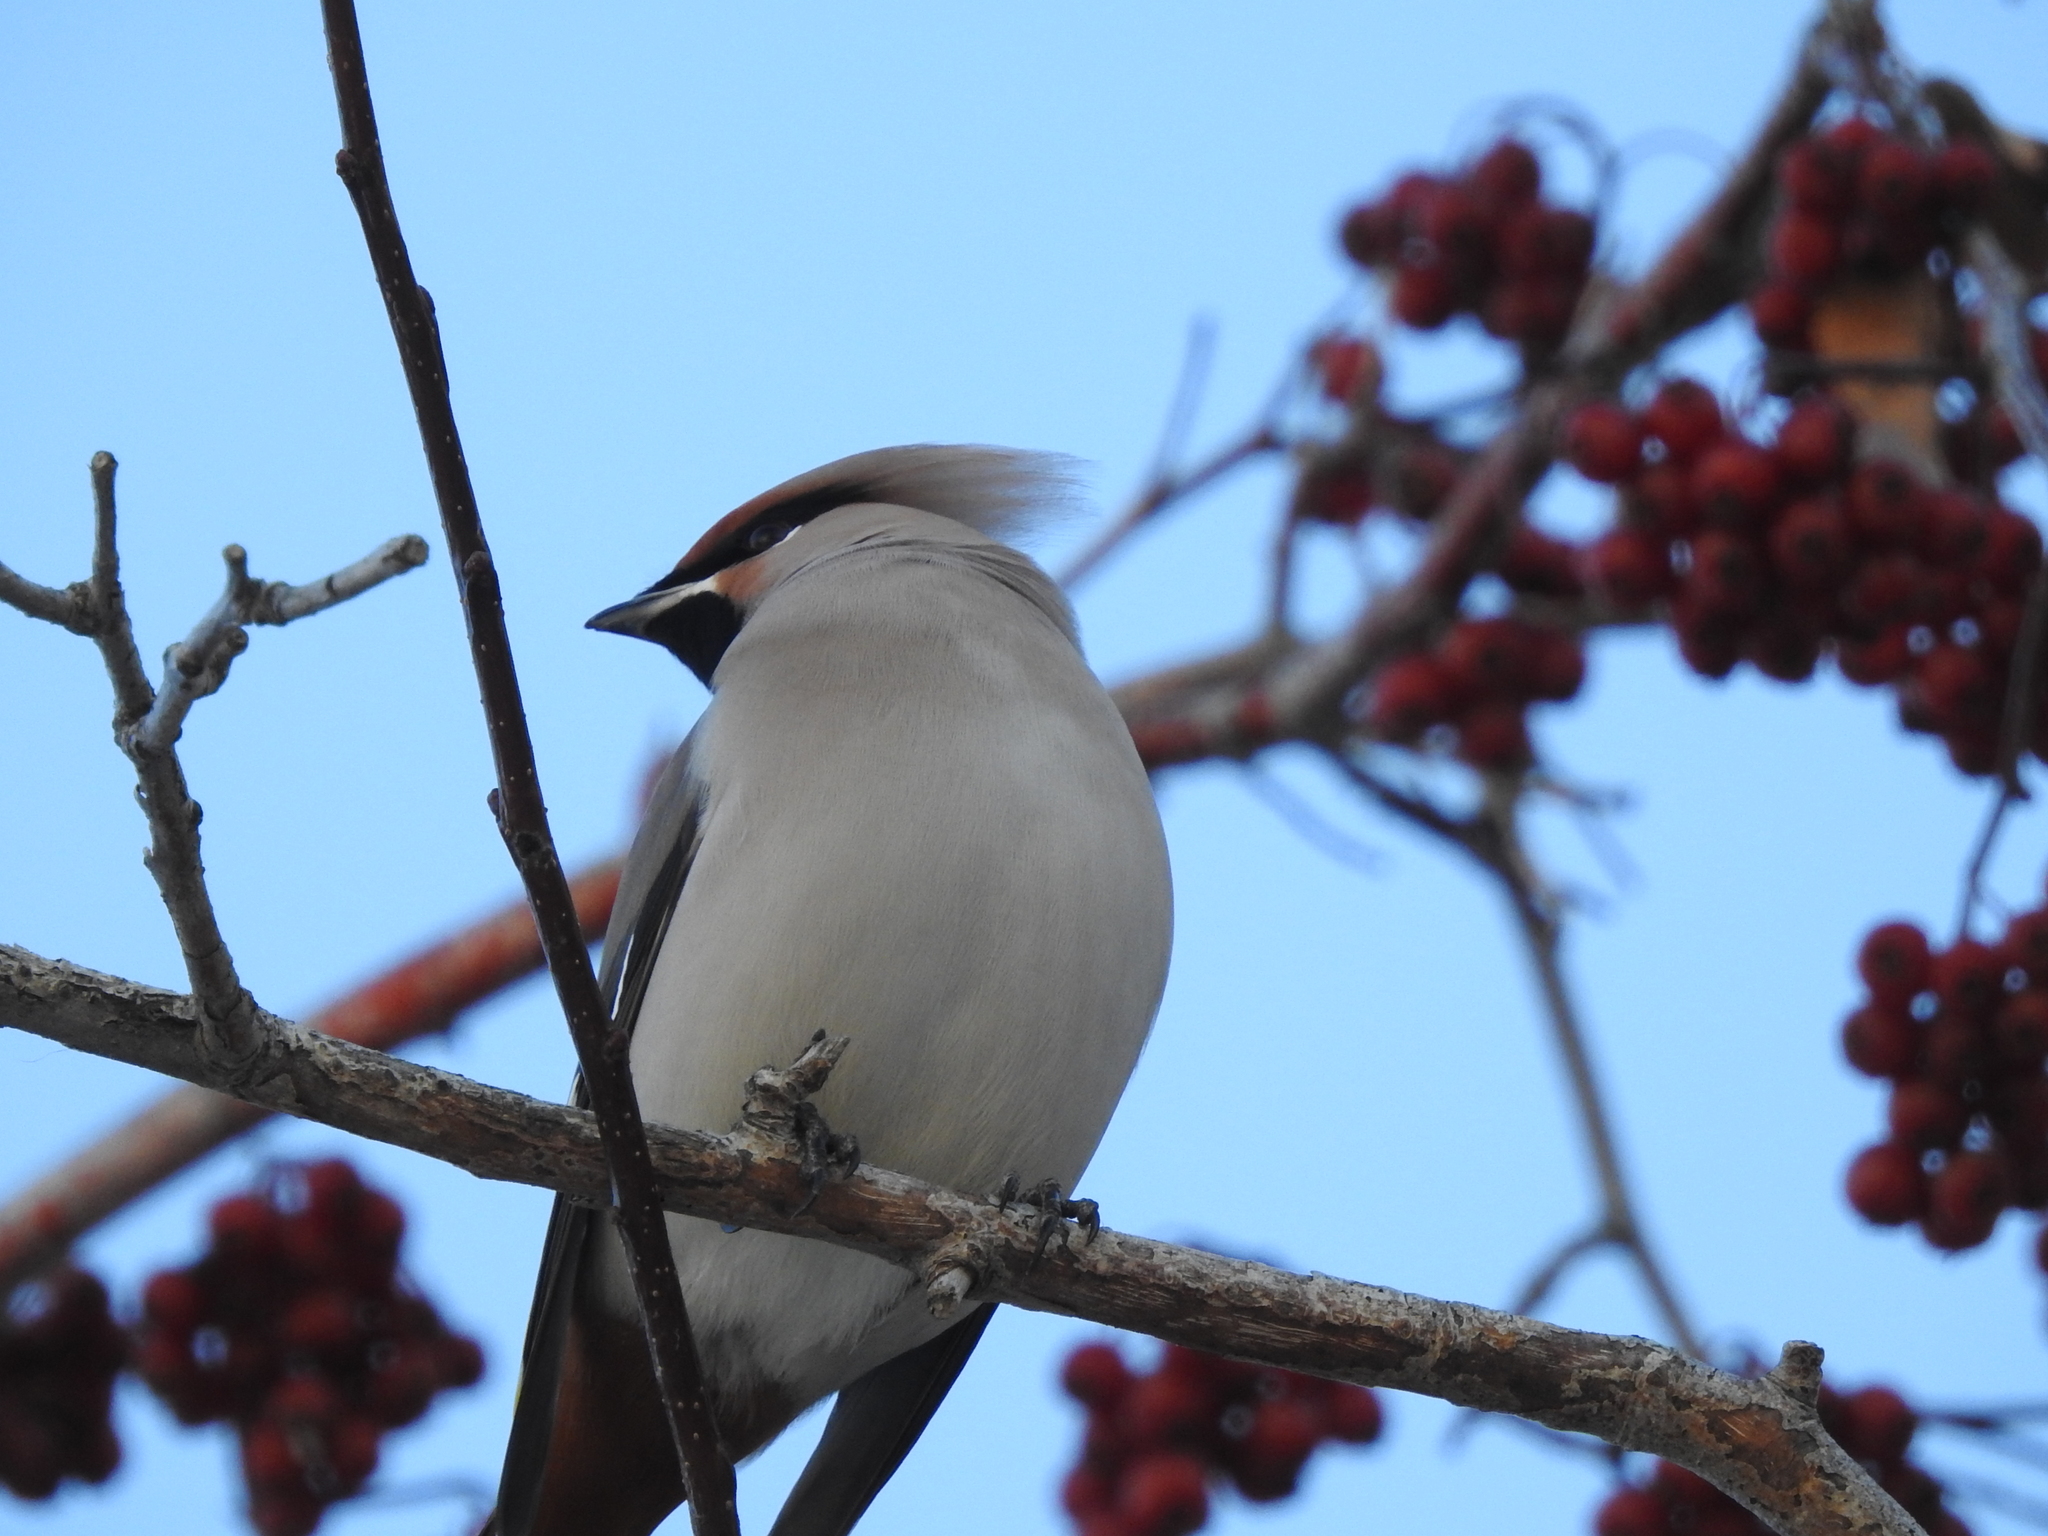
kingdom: Animalia
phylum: Chordata
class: Aves
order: Passeriformes
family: Bombycillidae
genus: Bombycilla
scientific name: Bombycilla garrulus
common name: Bohemian waxwing
